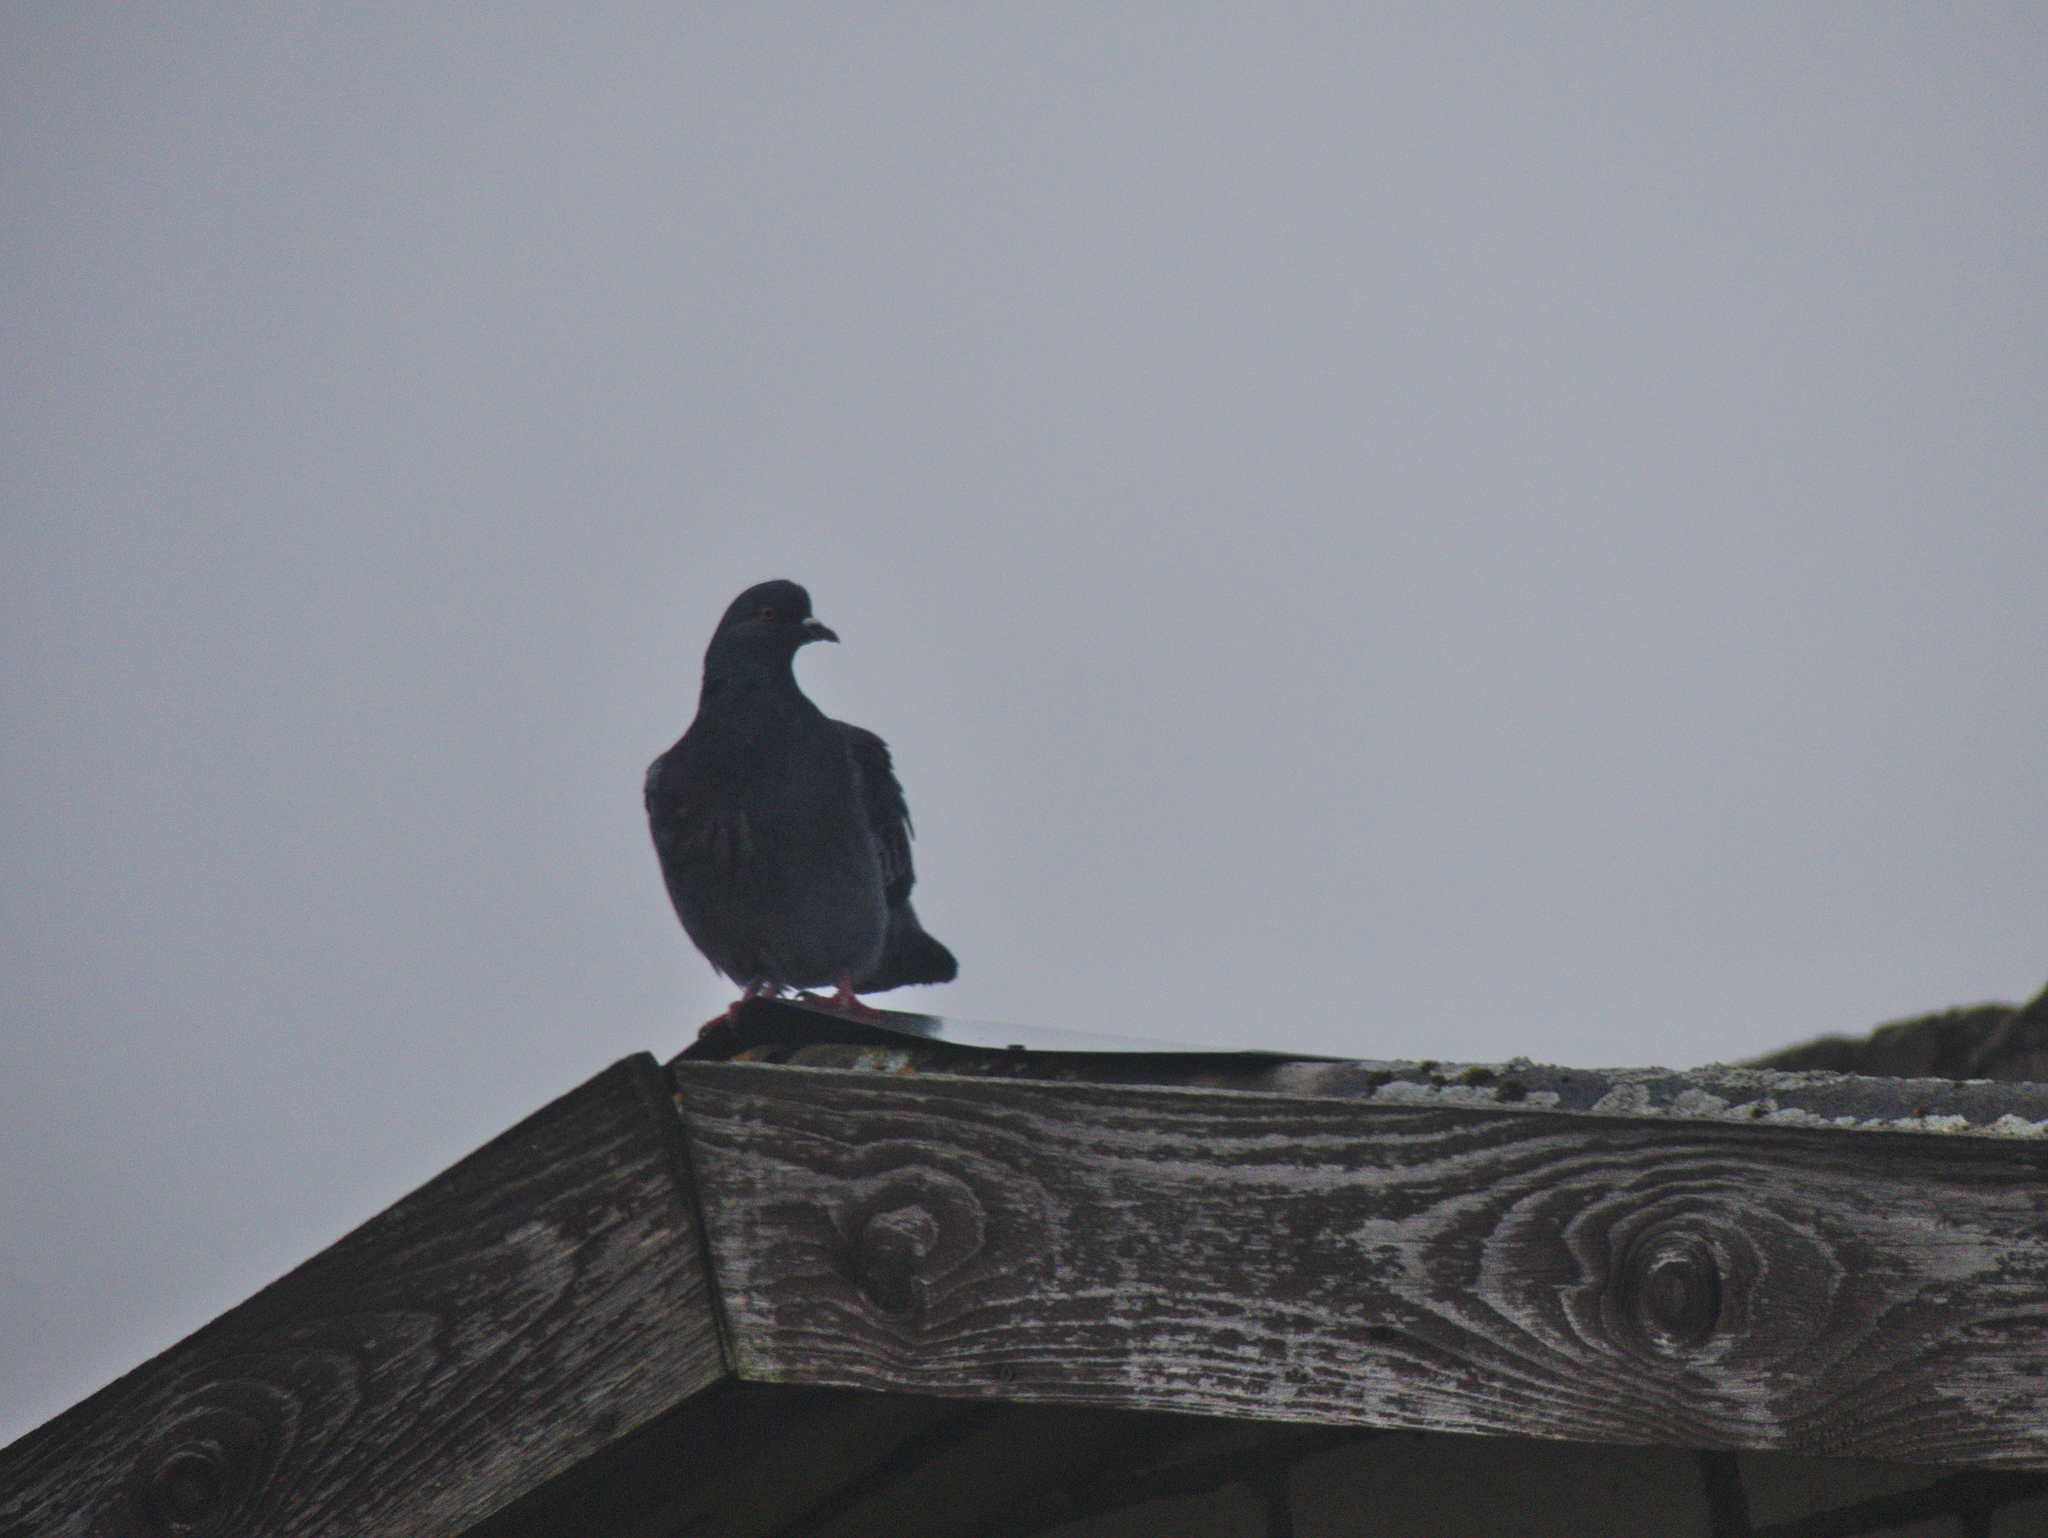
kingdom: Animalia
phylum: Chordata
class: Aves
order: Columbiformes
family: Columbidae
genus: Columba
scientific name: Columba livia
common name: Rock pigeon
